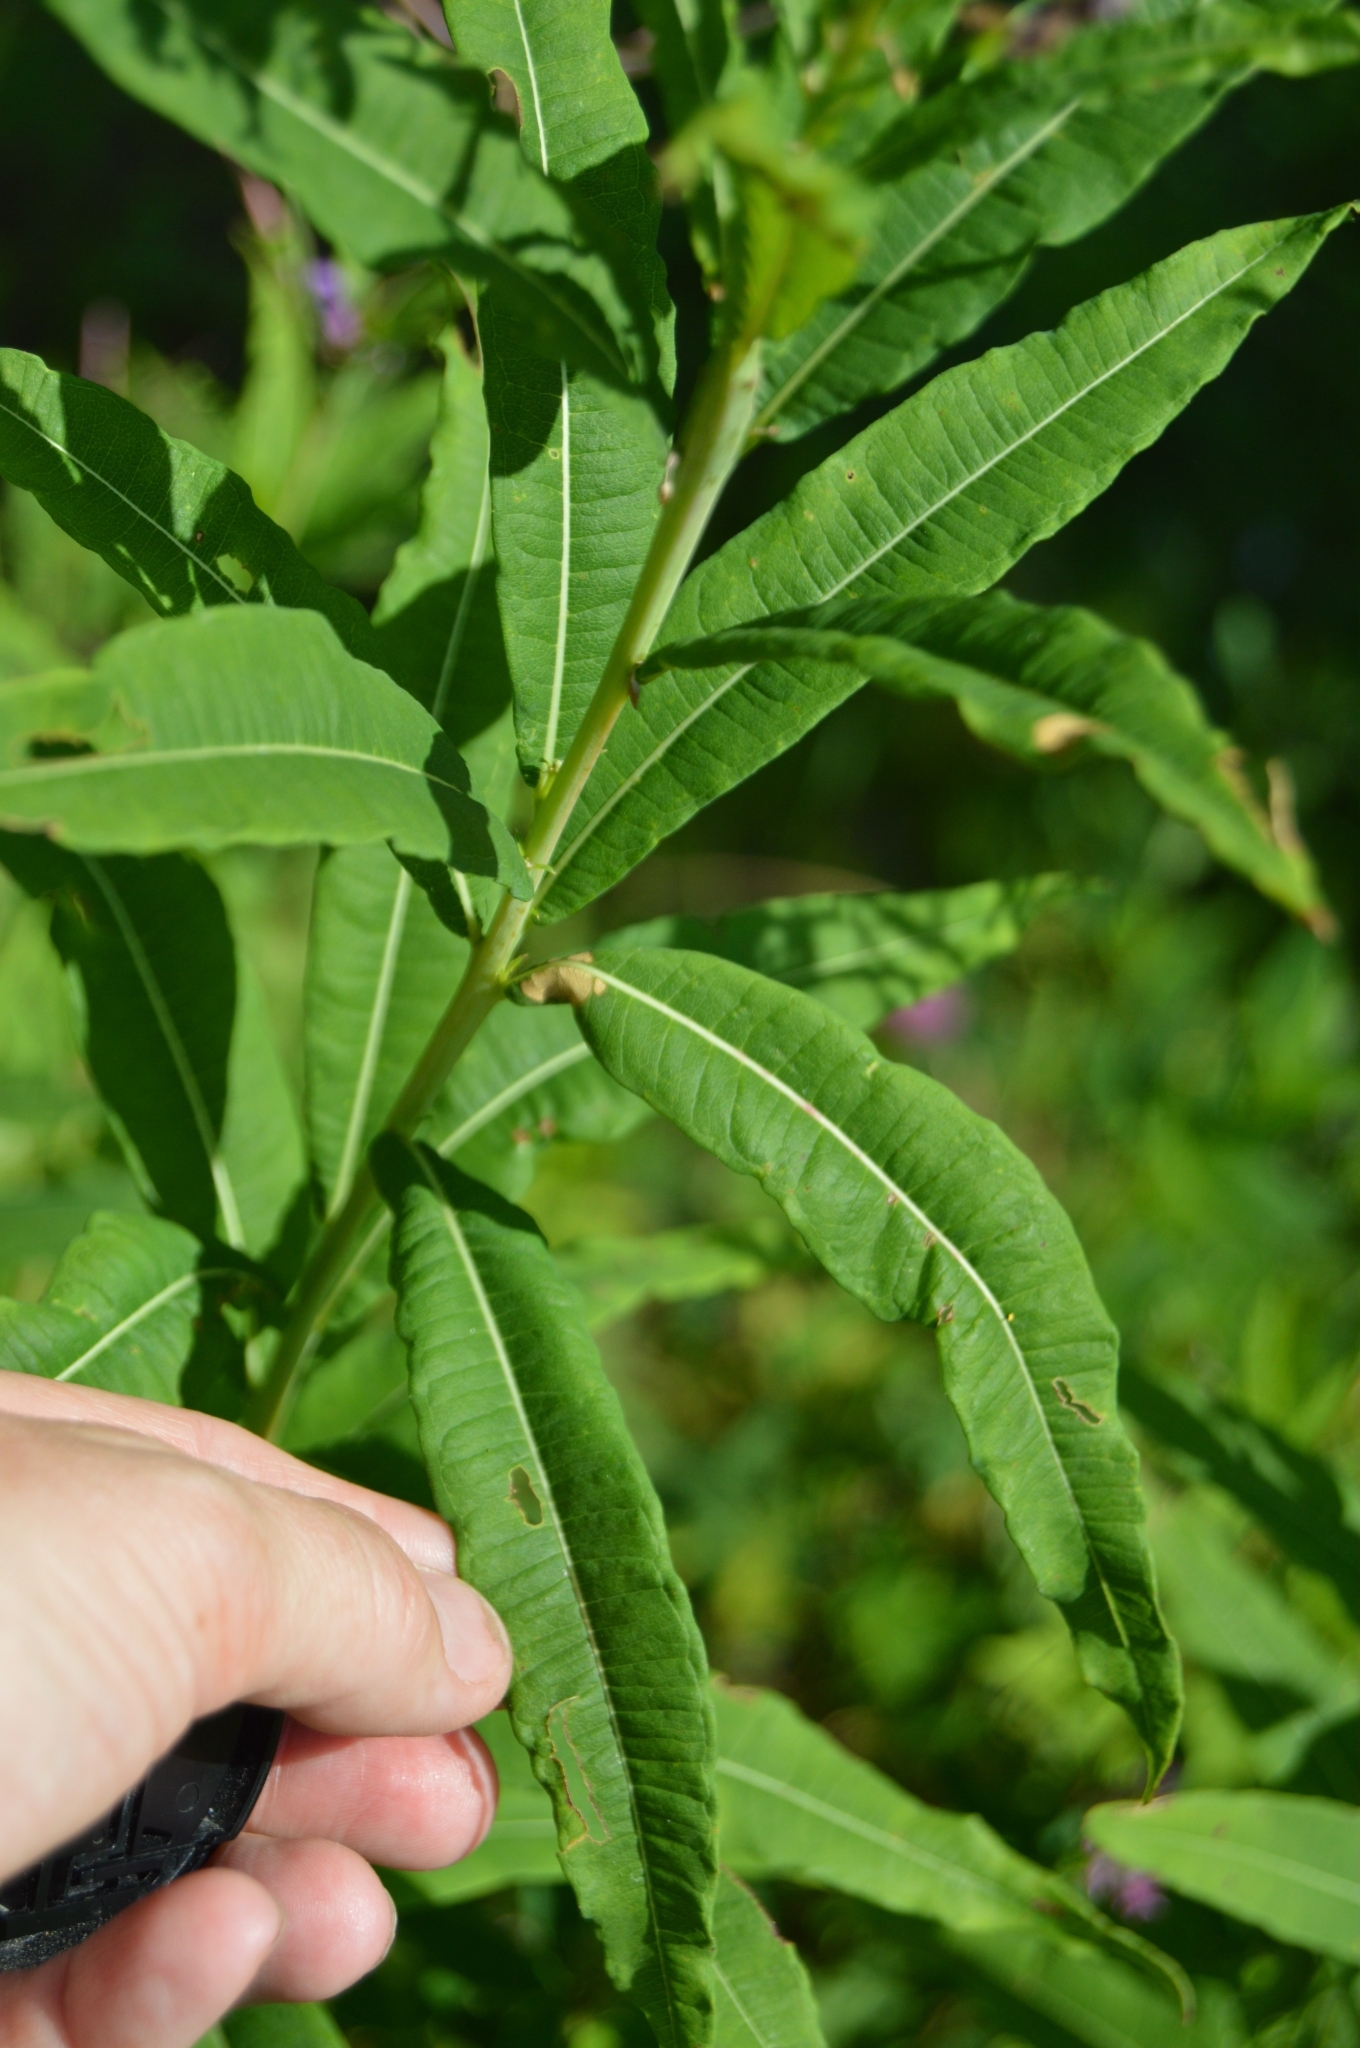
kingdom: Plantae
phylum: Tracheophyta
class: Magnoliopsida
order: Myrtales
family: Onagraceae
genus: Chamaenerion
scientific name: Chamaenerion angustifolium
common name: Fireweed
